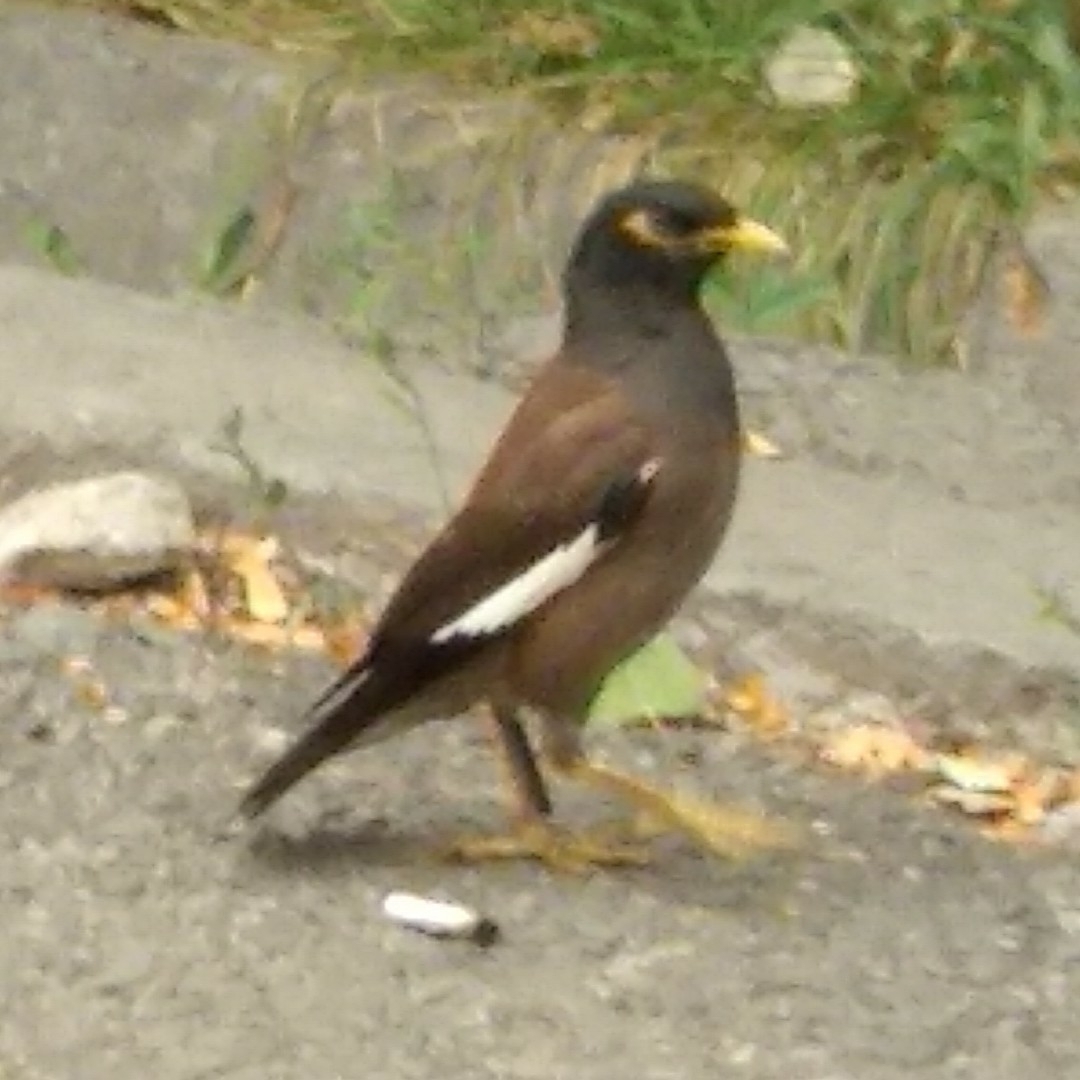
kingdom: Animalia
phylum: Chordata
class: Aves
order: Passeriformes
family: Sturnidae
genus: Acridotheres
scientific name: Acridotheres tristis
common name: Common myna
